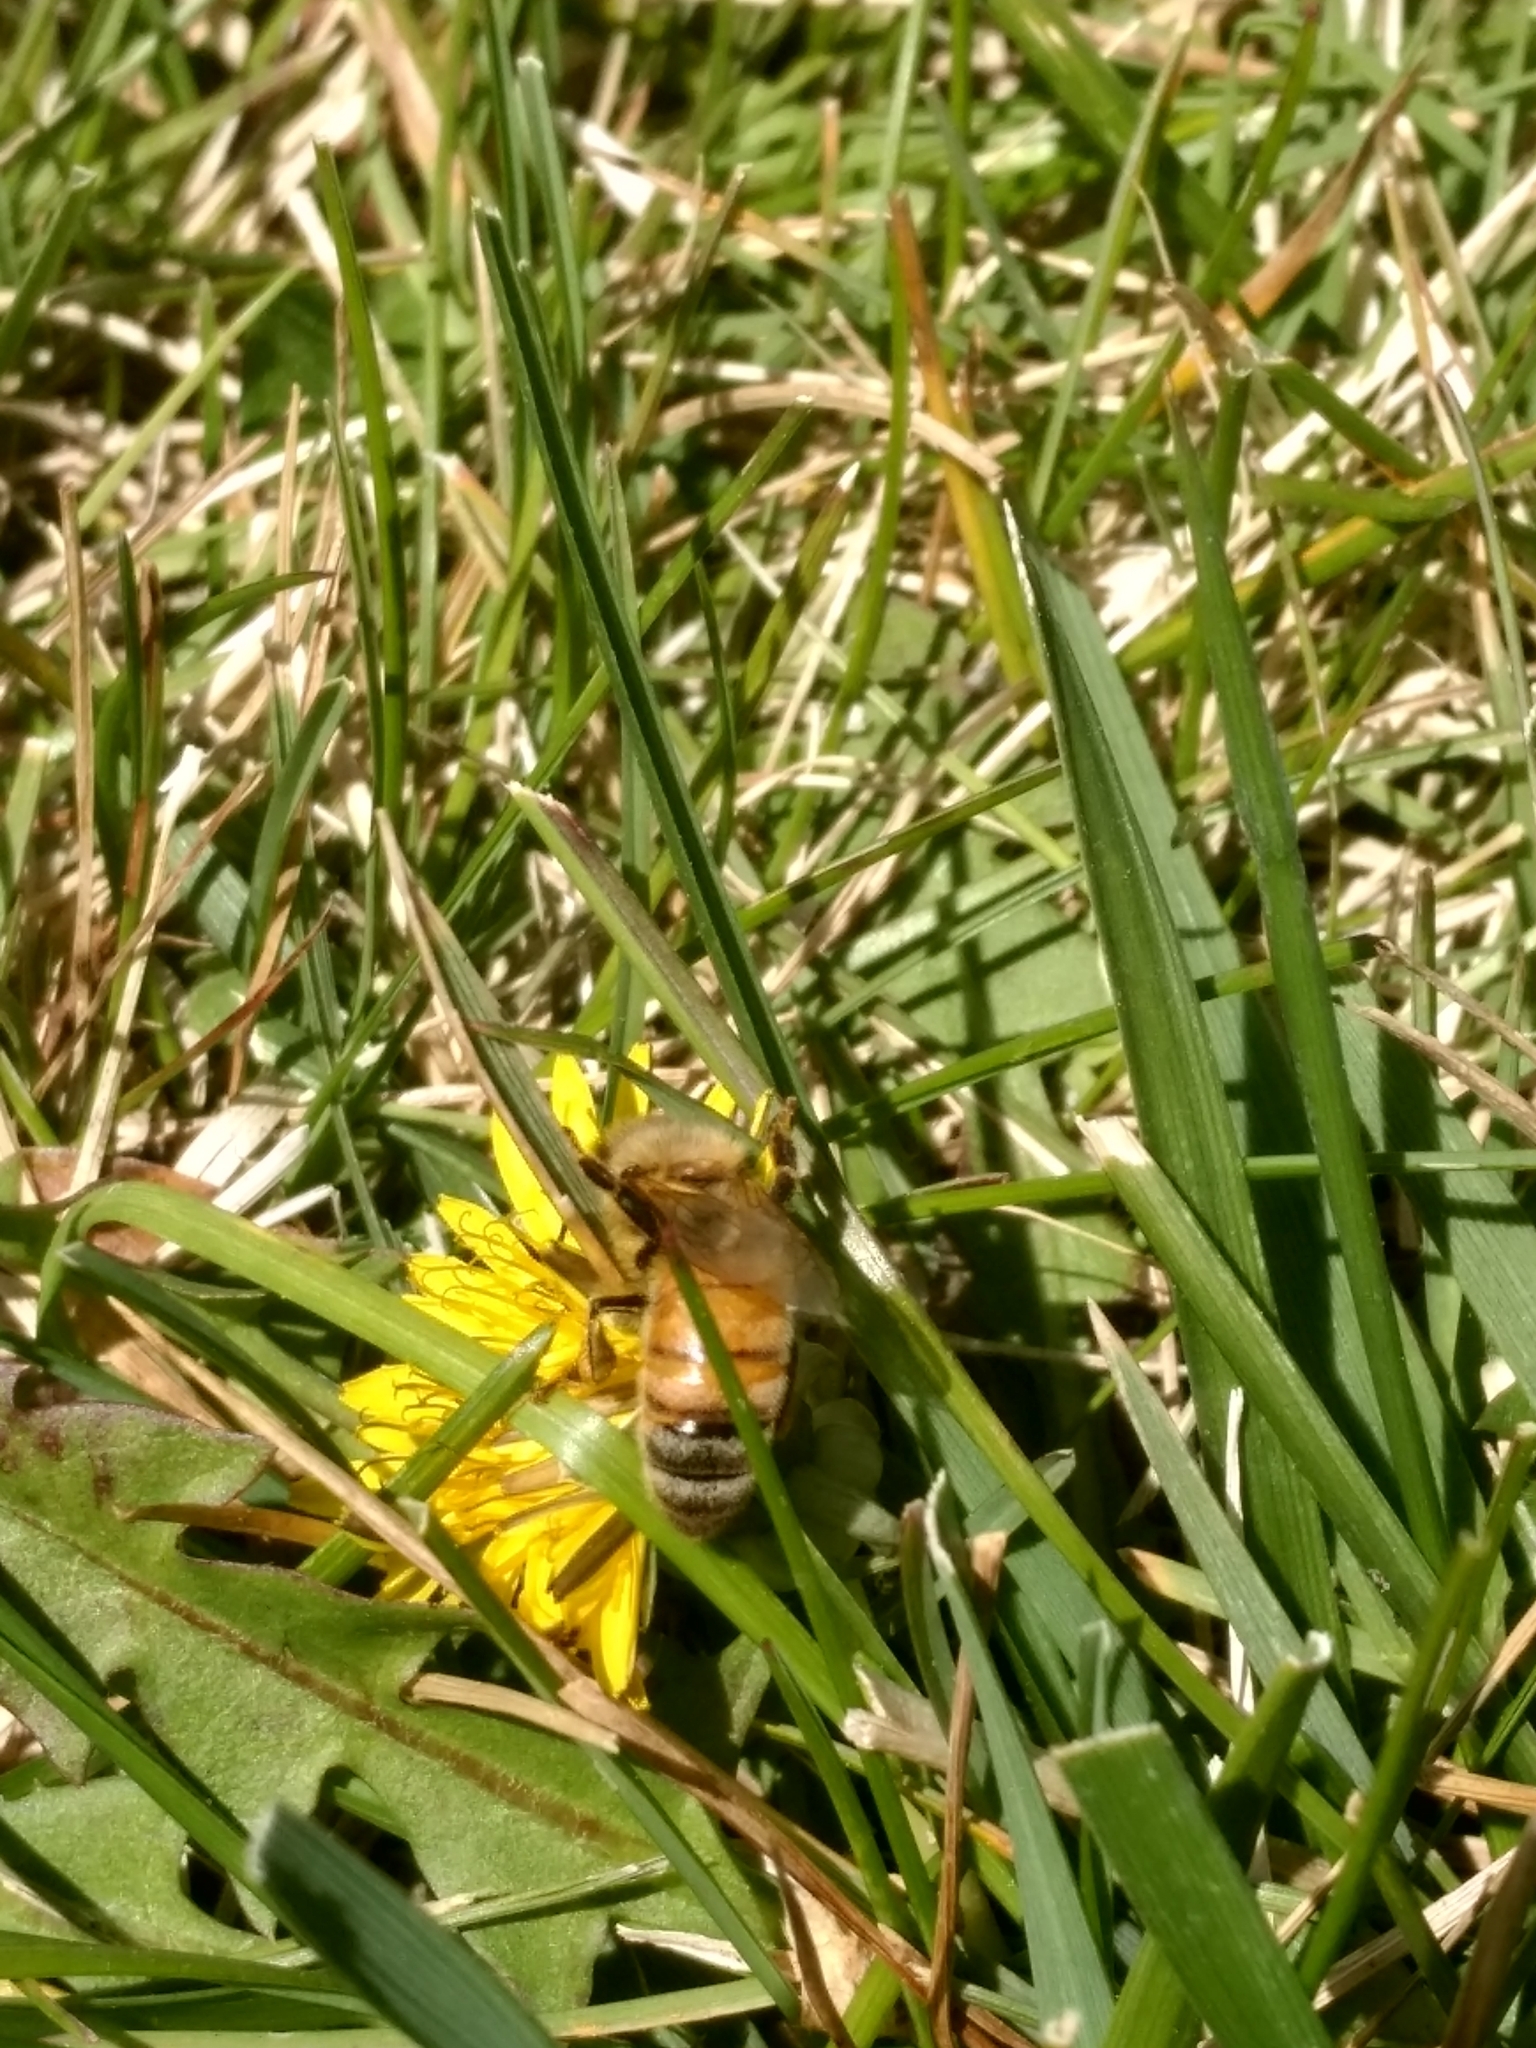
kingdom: Animalia
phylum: Arthropoda
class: Insecta
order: Hymenoptera
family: Apidae
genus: Apis
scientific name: Apis mellifera
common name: Honey bee
